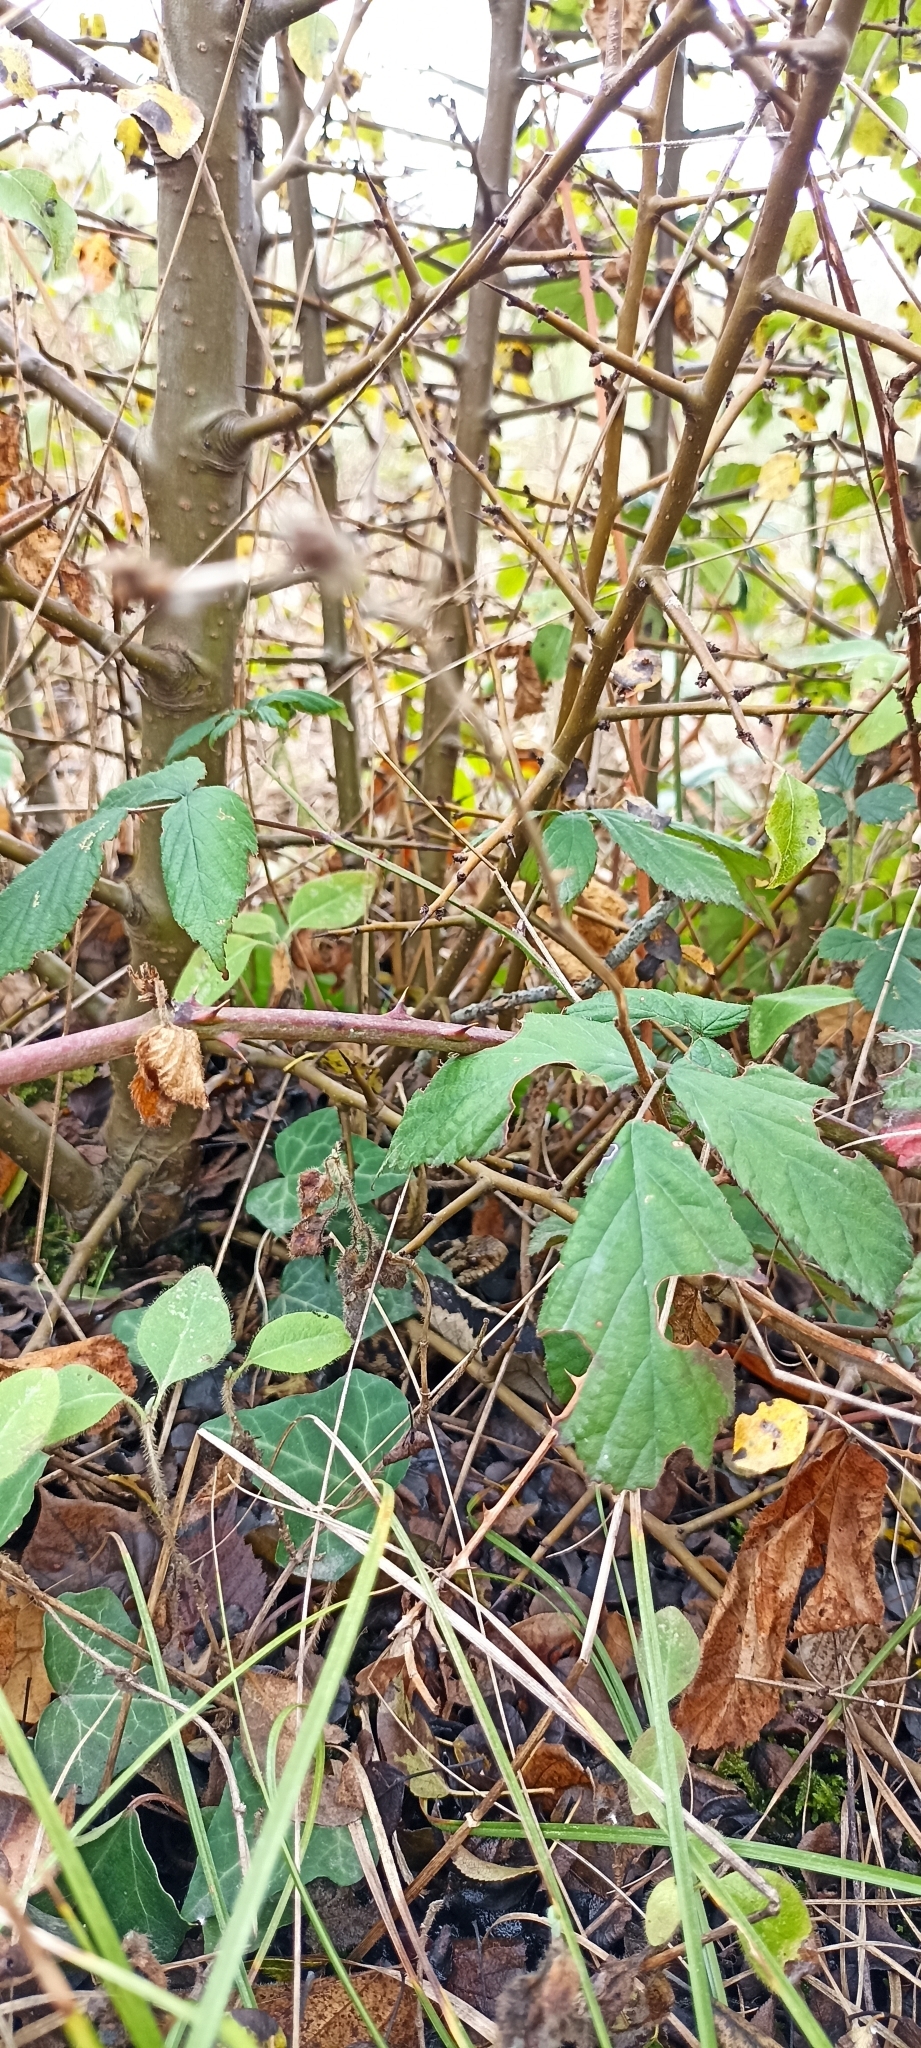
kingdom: Animalia
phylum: Chordata
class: Squamata
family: Viperidae
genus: Vipera
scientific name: Vipera berus
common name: Adder
